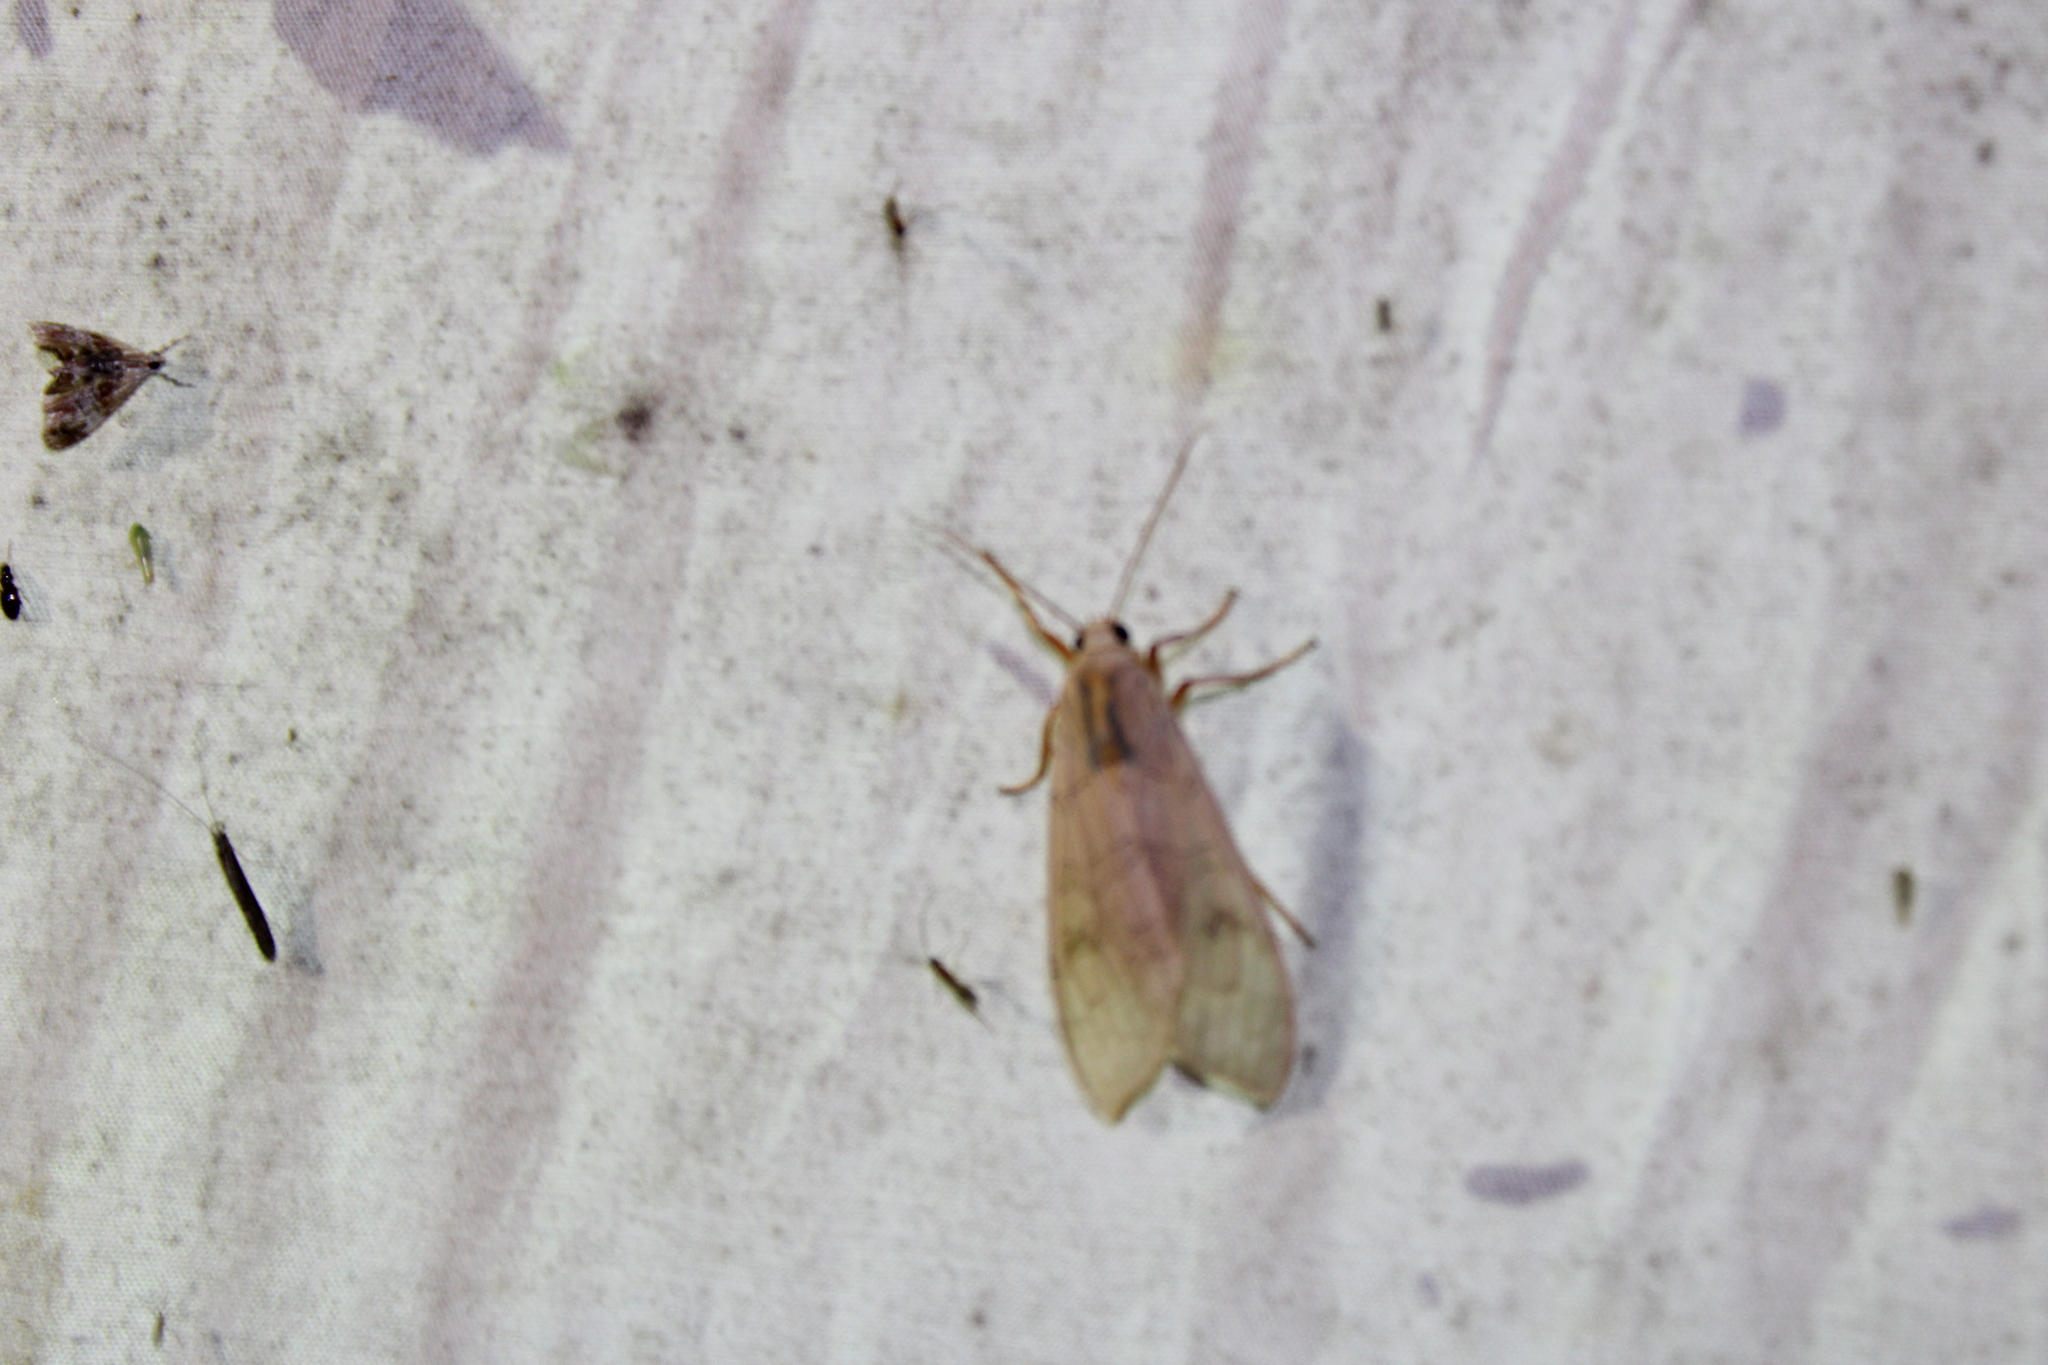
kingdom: Animalia
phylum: Arthropoda
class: Insecta
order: Lepidoptera
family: Erebidae
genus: Halysidota
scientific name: Halysidota
